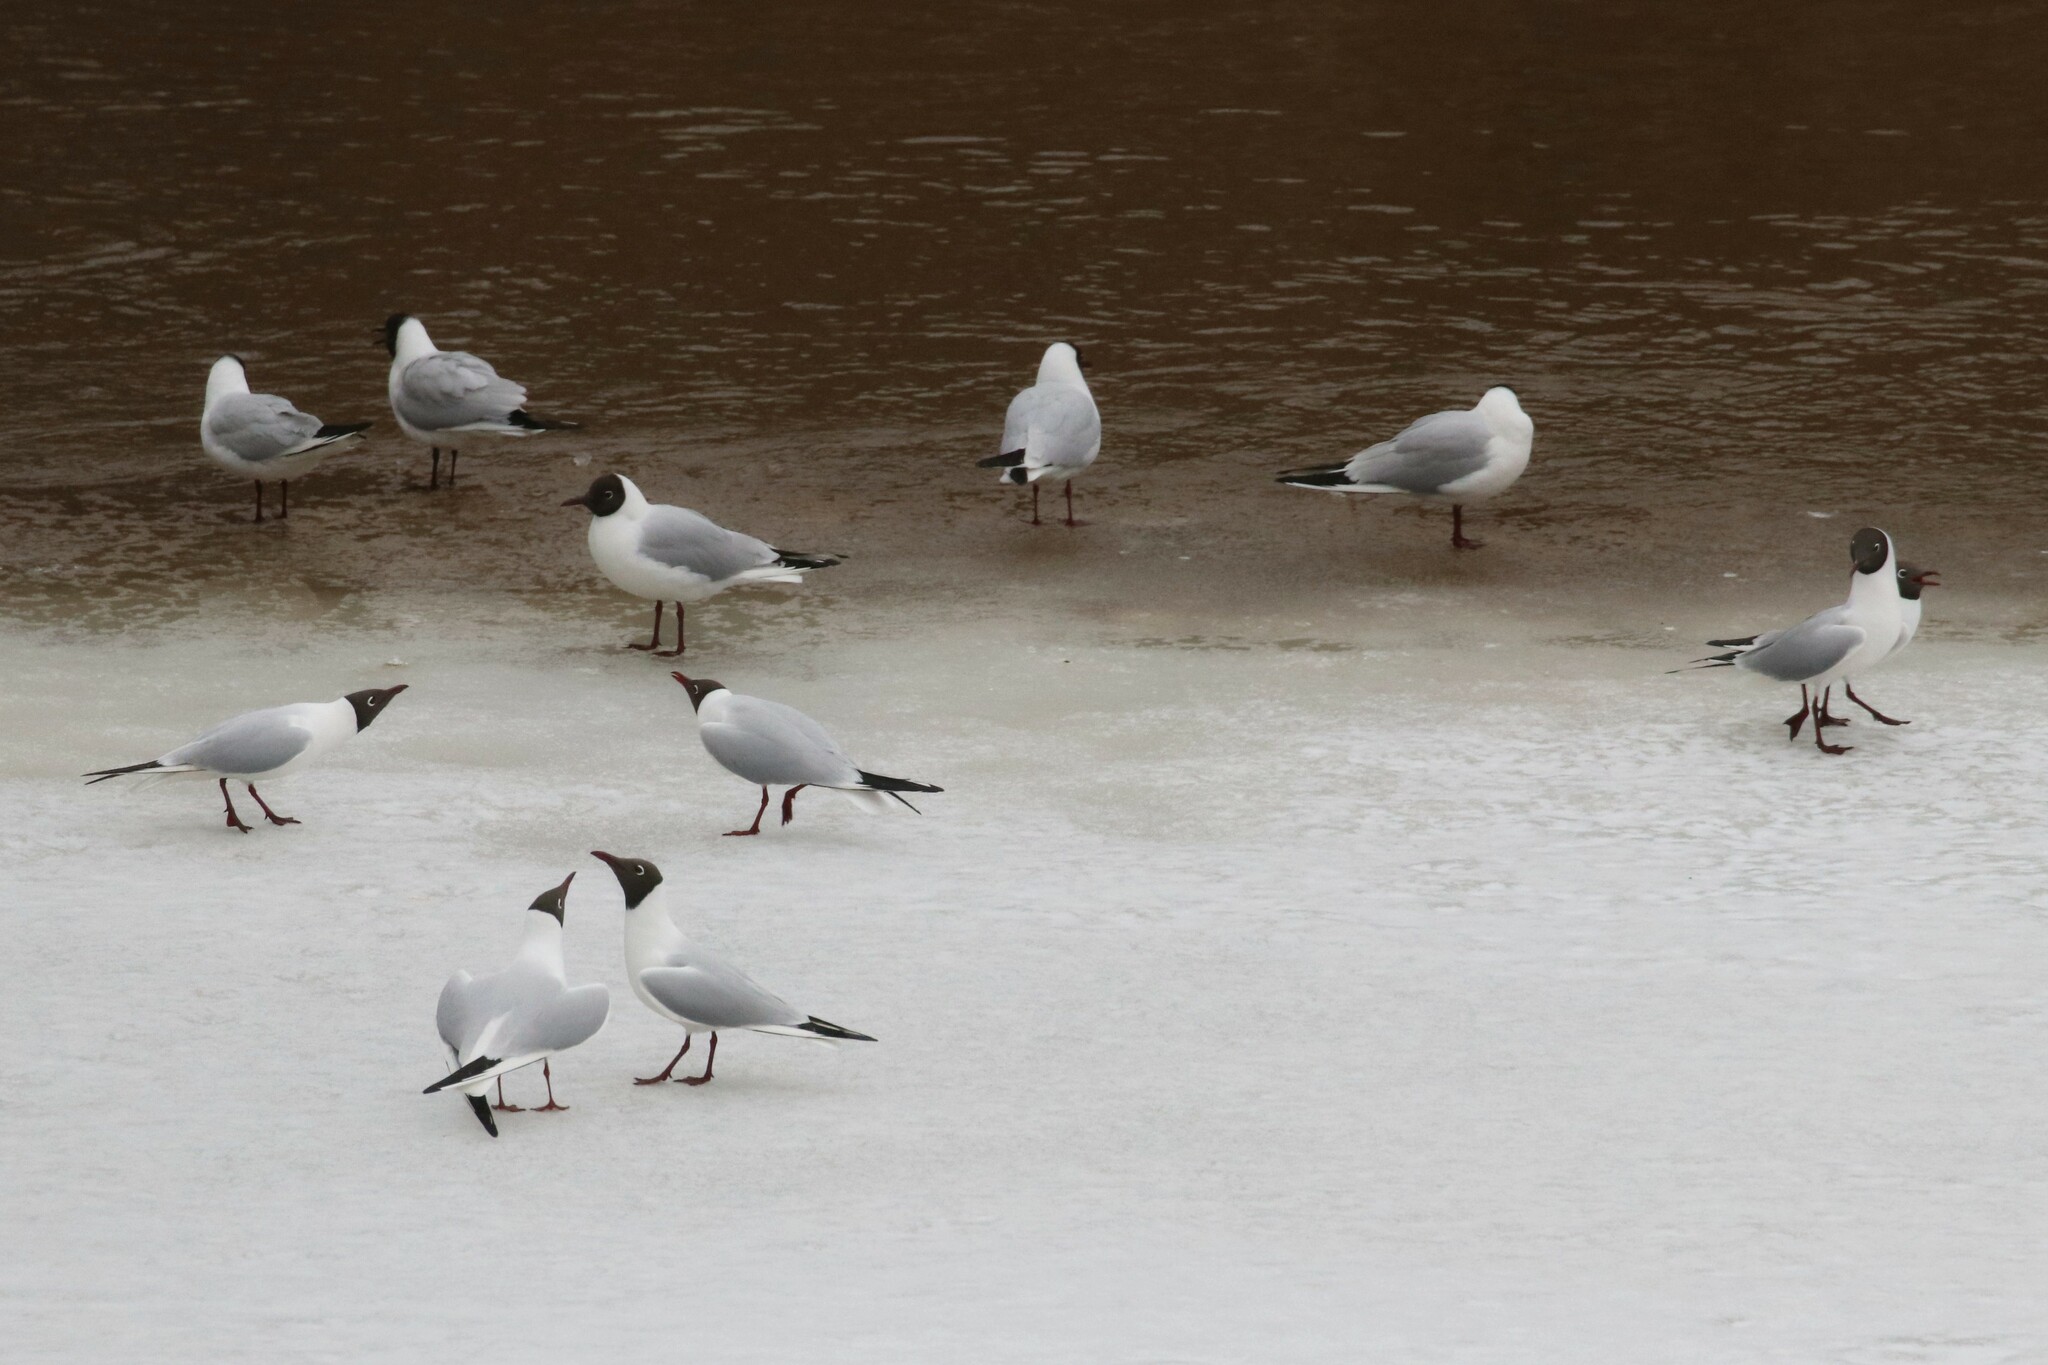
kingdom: Animalia
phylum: Chordata
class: Aves
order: Charadriiformes
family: Laridae
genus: Chroicocephalus
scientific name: Chroicocephalus ridibundus
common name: Black-headed gull
